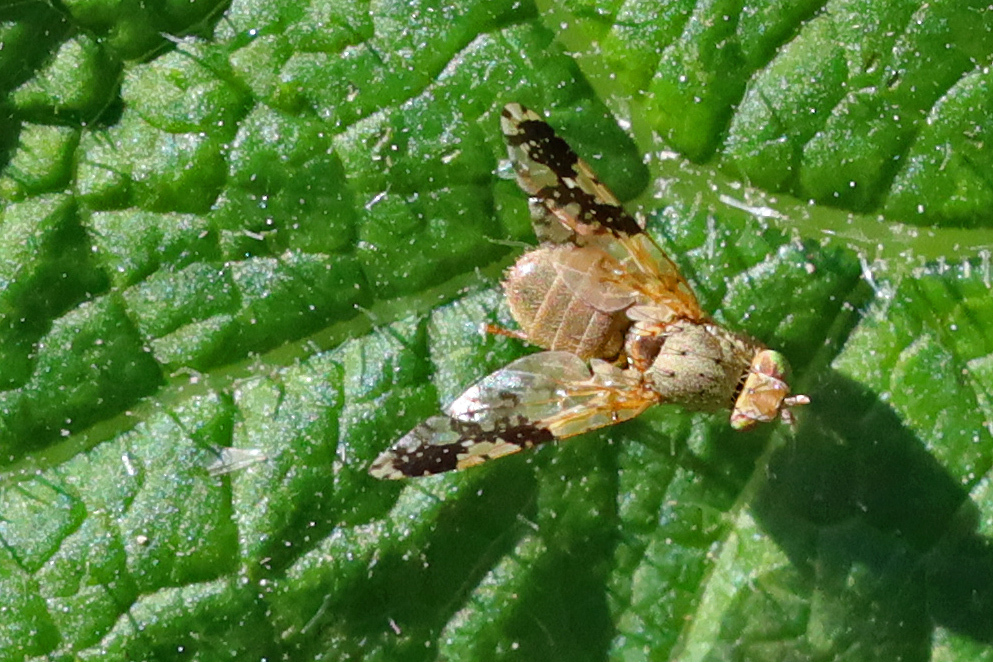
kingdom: Animalia
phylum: Arthropoda
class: Insecta
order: Diptera
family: Tephritidae
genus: Tephritis
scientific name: Tephritis bardanae
